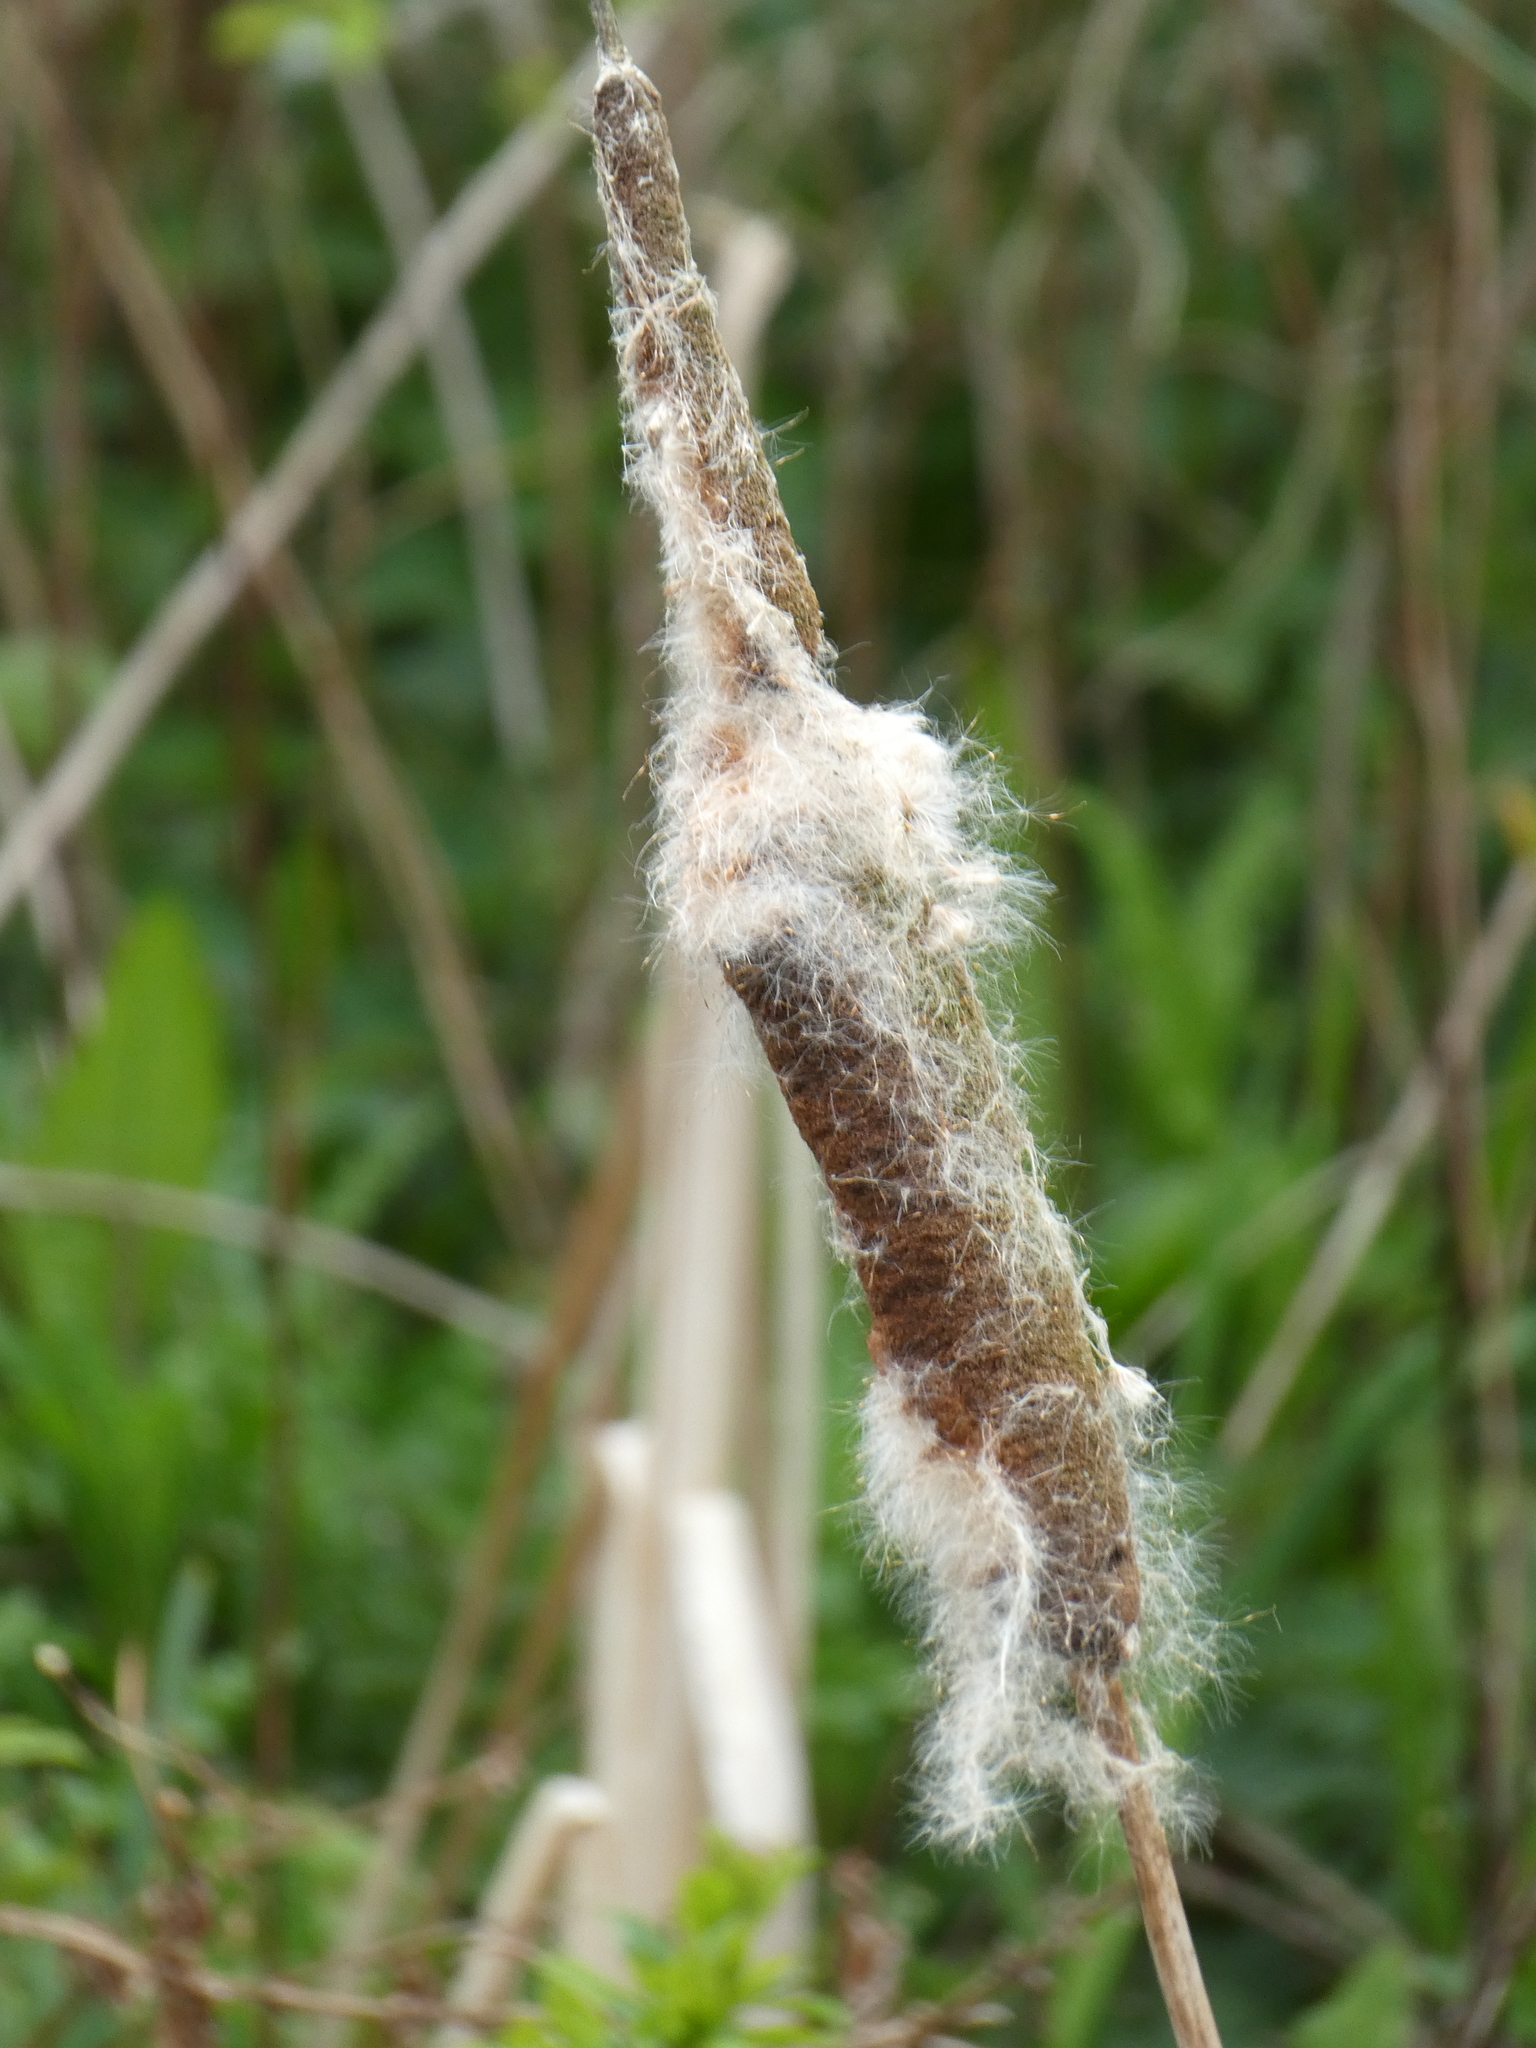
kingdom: Plantae
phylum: Tracheophyta
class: Liliopsida
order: Poales
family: Typhaceae
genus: Typha
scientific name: Typha latifolia
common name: Broadleaf cattail
